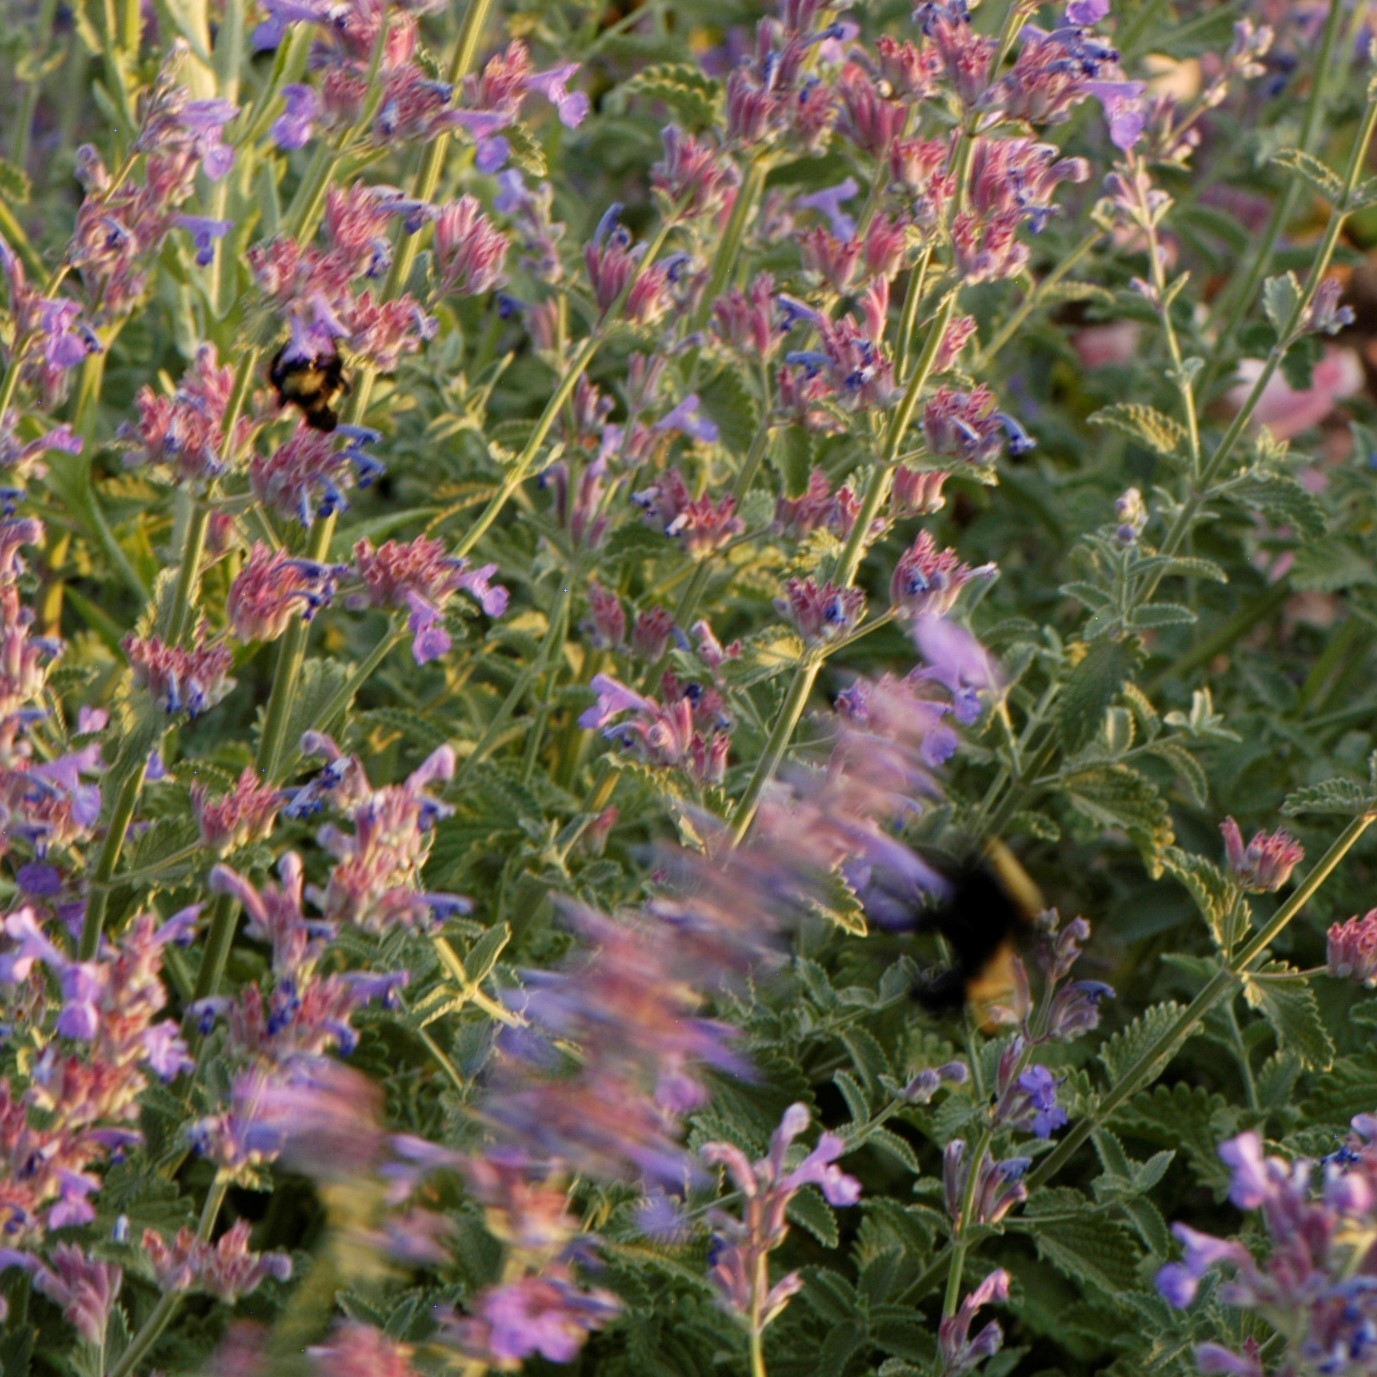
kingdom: Animalia
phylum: Arthropoda
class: Insecta
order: Hymenoptera
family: Apidae
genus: Bombus
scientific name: Bombus pensylvanicus
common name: Bumble bee
